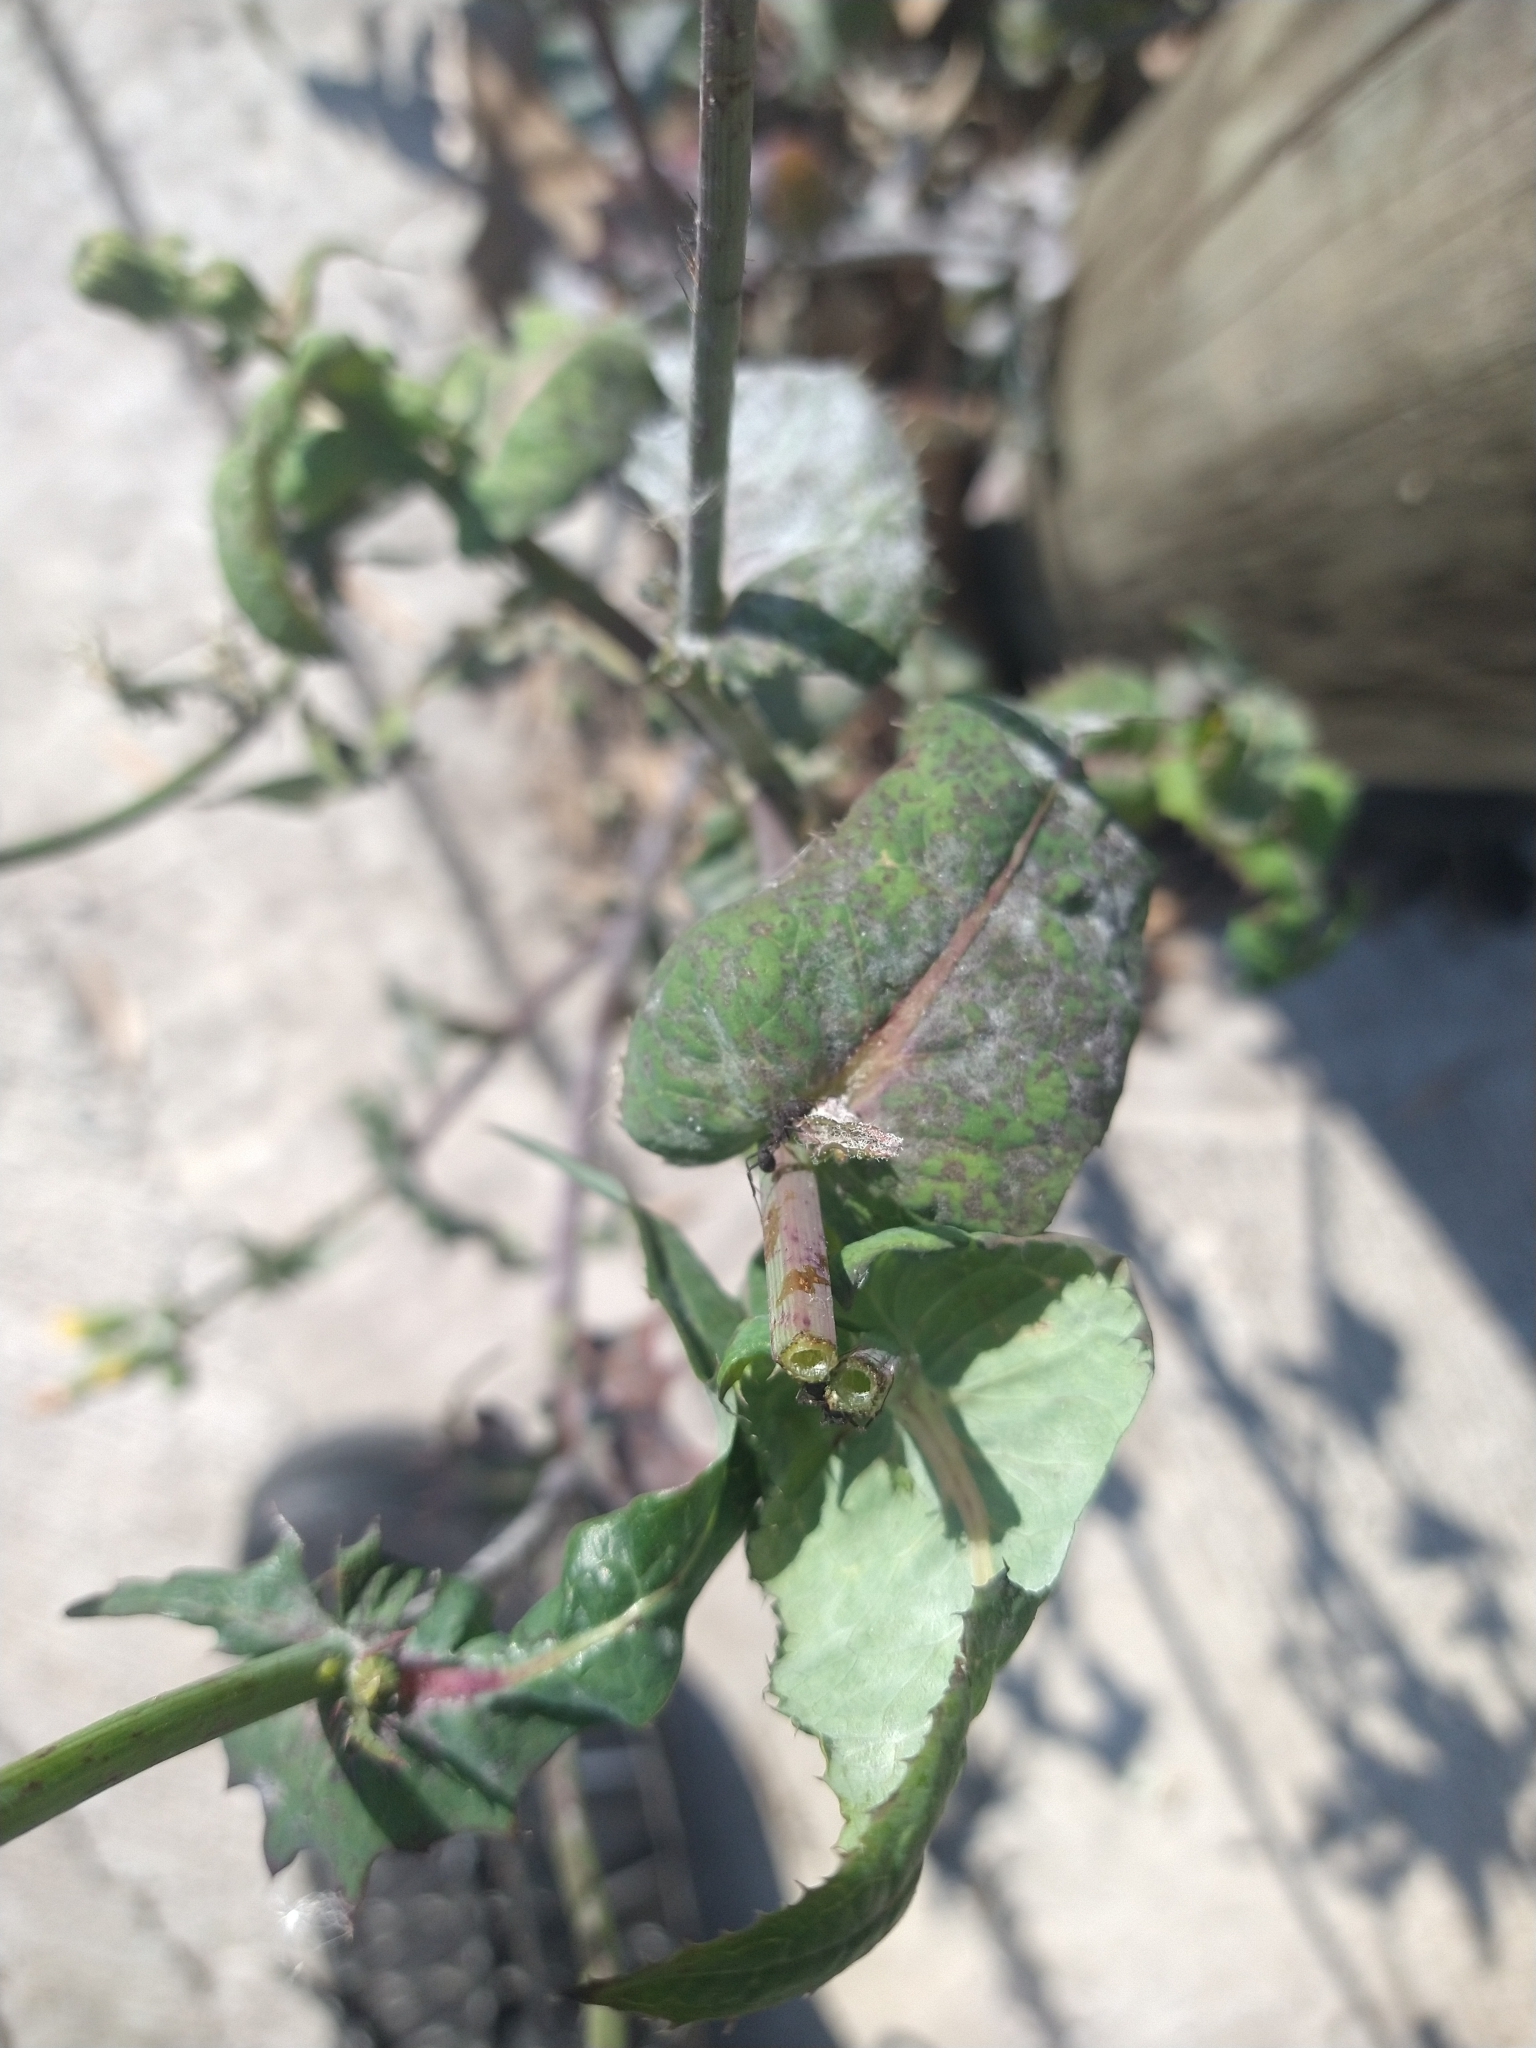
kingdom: Plantae
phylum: Tracheophyta
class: Magnoliopsida
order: Asterales
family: Asteraceae
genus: Sonchus
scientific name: Sonchus oleraceus
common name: Common sowthistle
